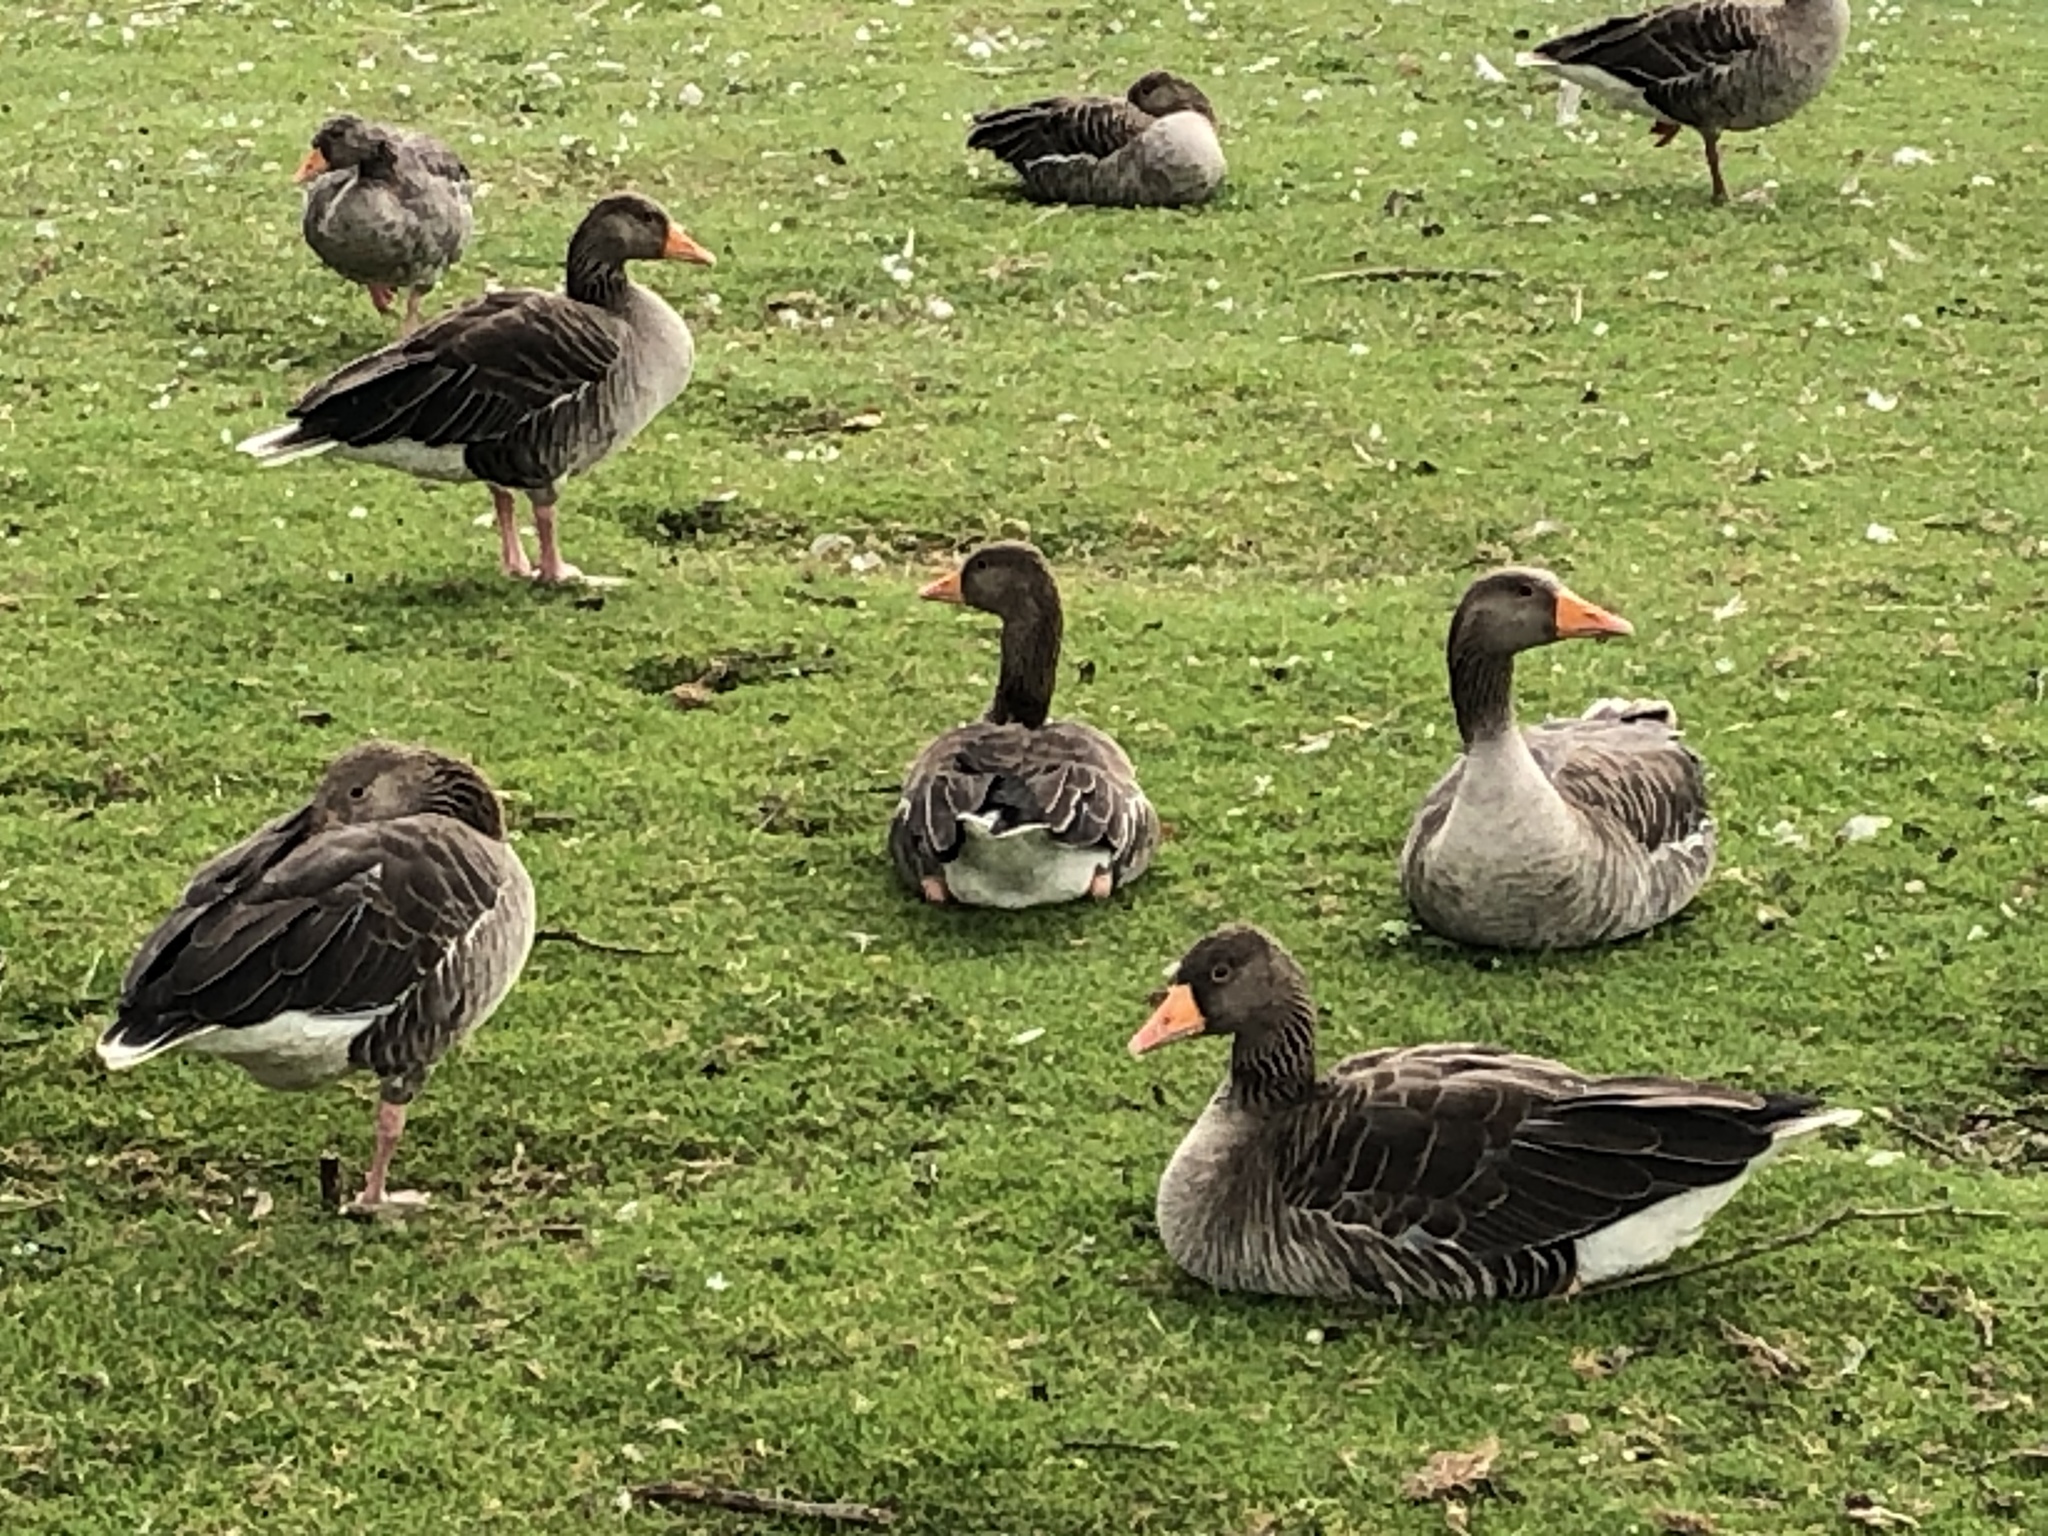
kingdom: Animalia
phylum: Chordata
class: Aves
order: Anseriformes
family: Anatidae
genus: Anser
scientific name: Anser anser
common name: Greylag goose
